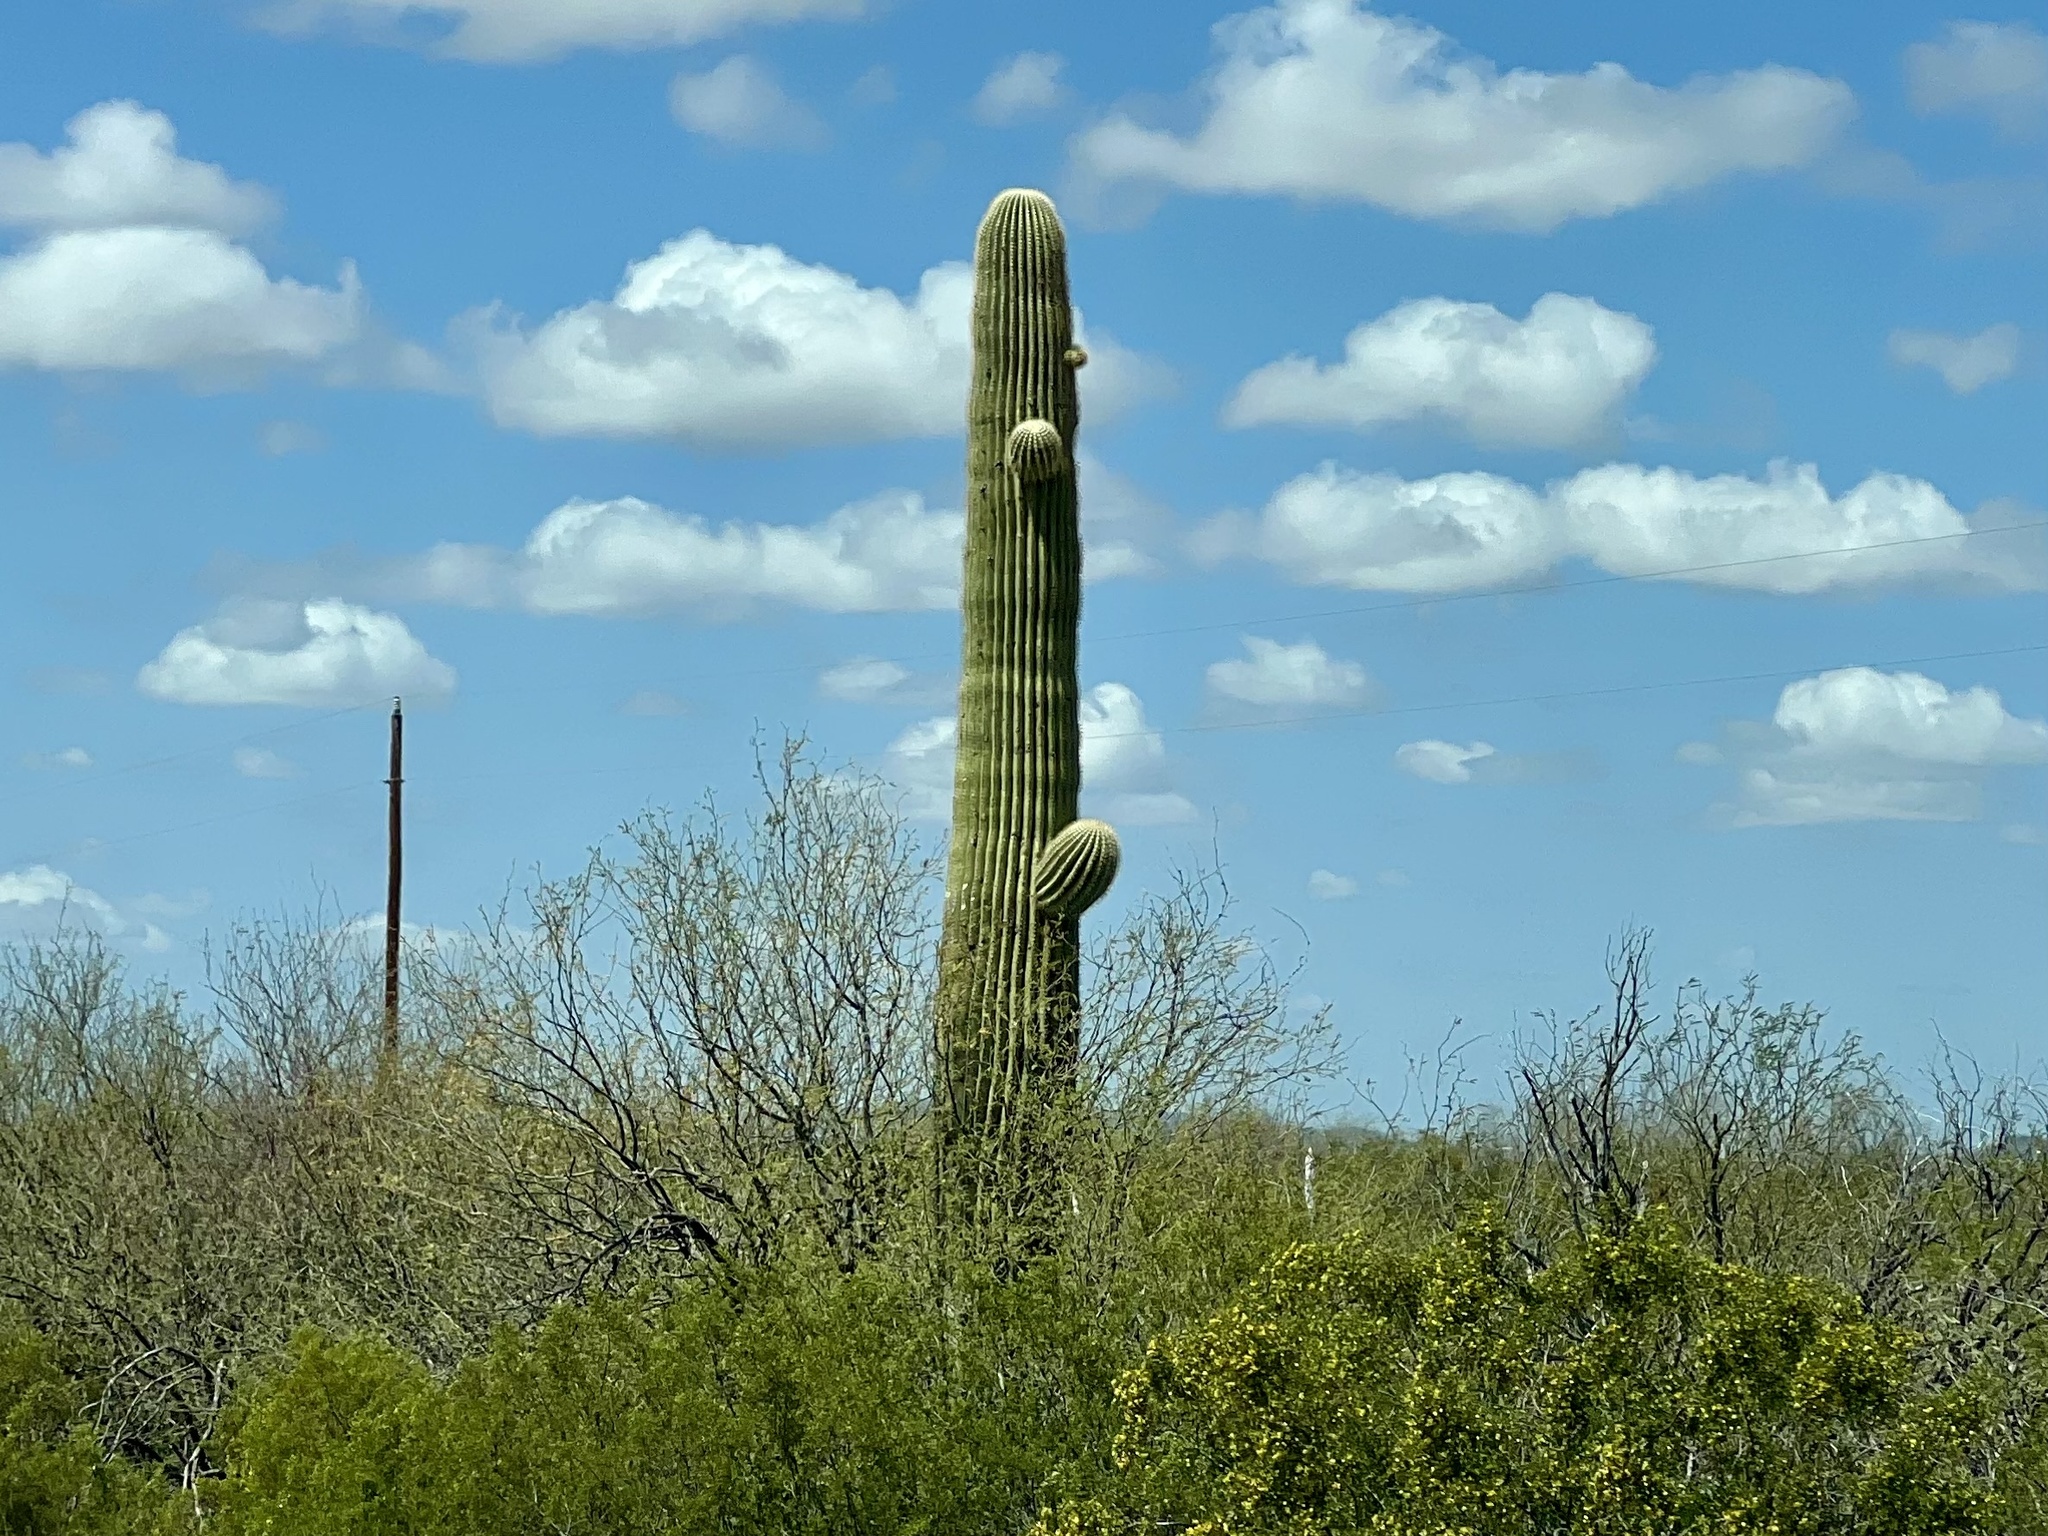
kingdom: Plantae
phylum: Tracheophyta
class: Magnoliopsida
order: Caryophyllales
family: Cactaceae
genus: Carnegiea
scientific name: Carnegiea gigantea
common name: Saguaro
